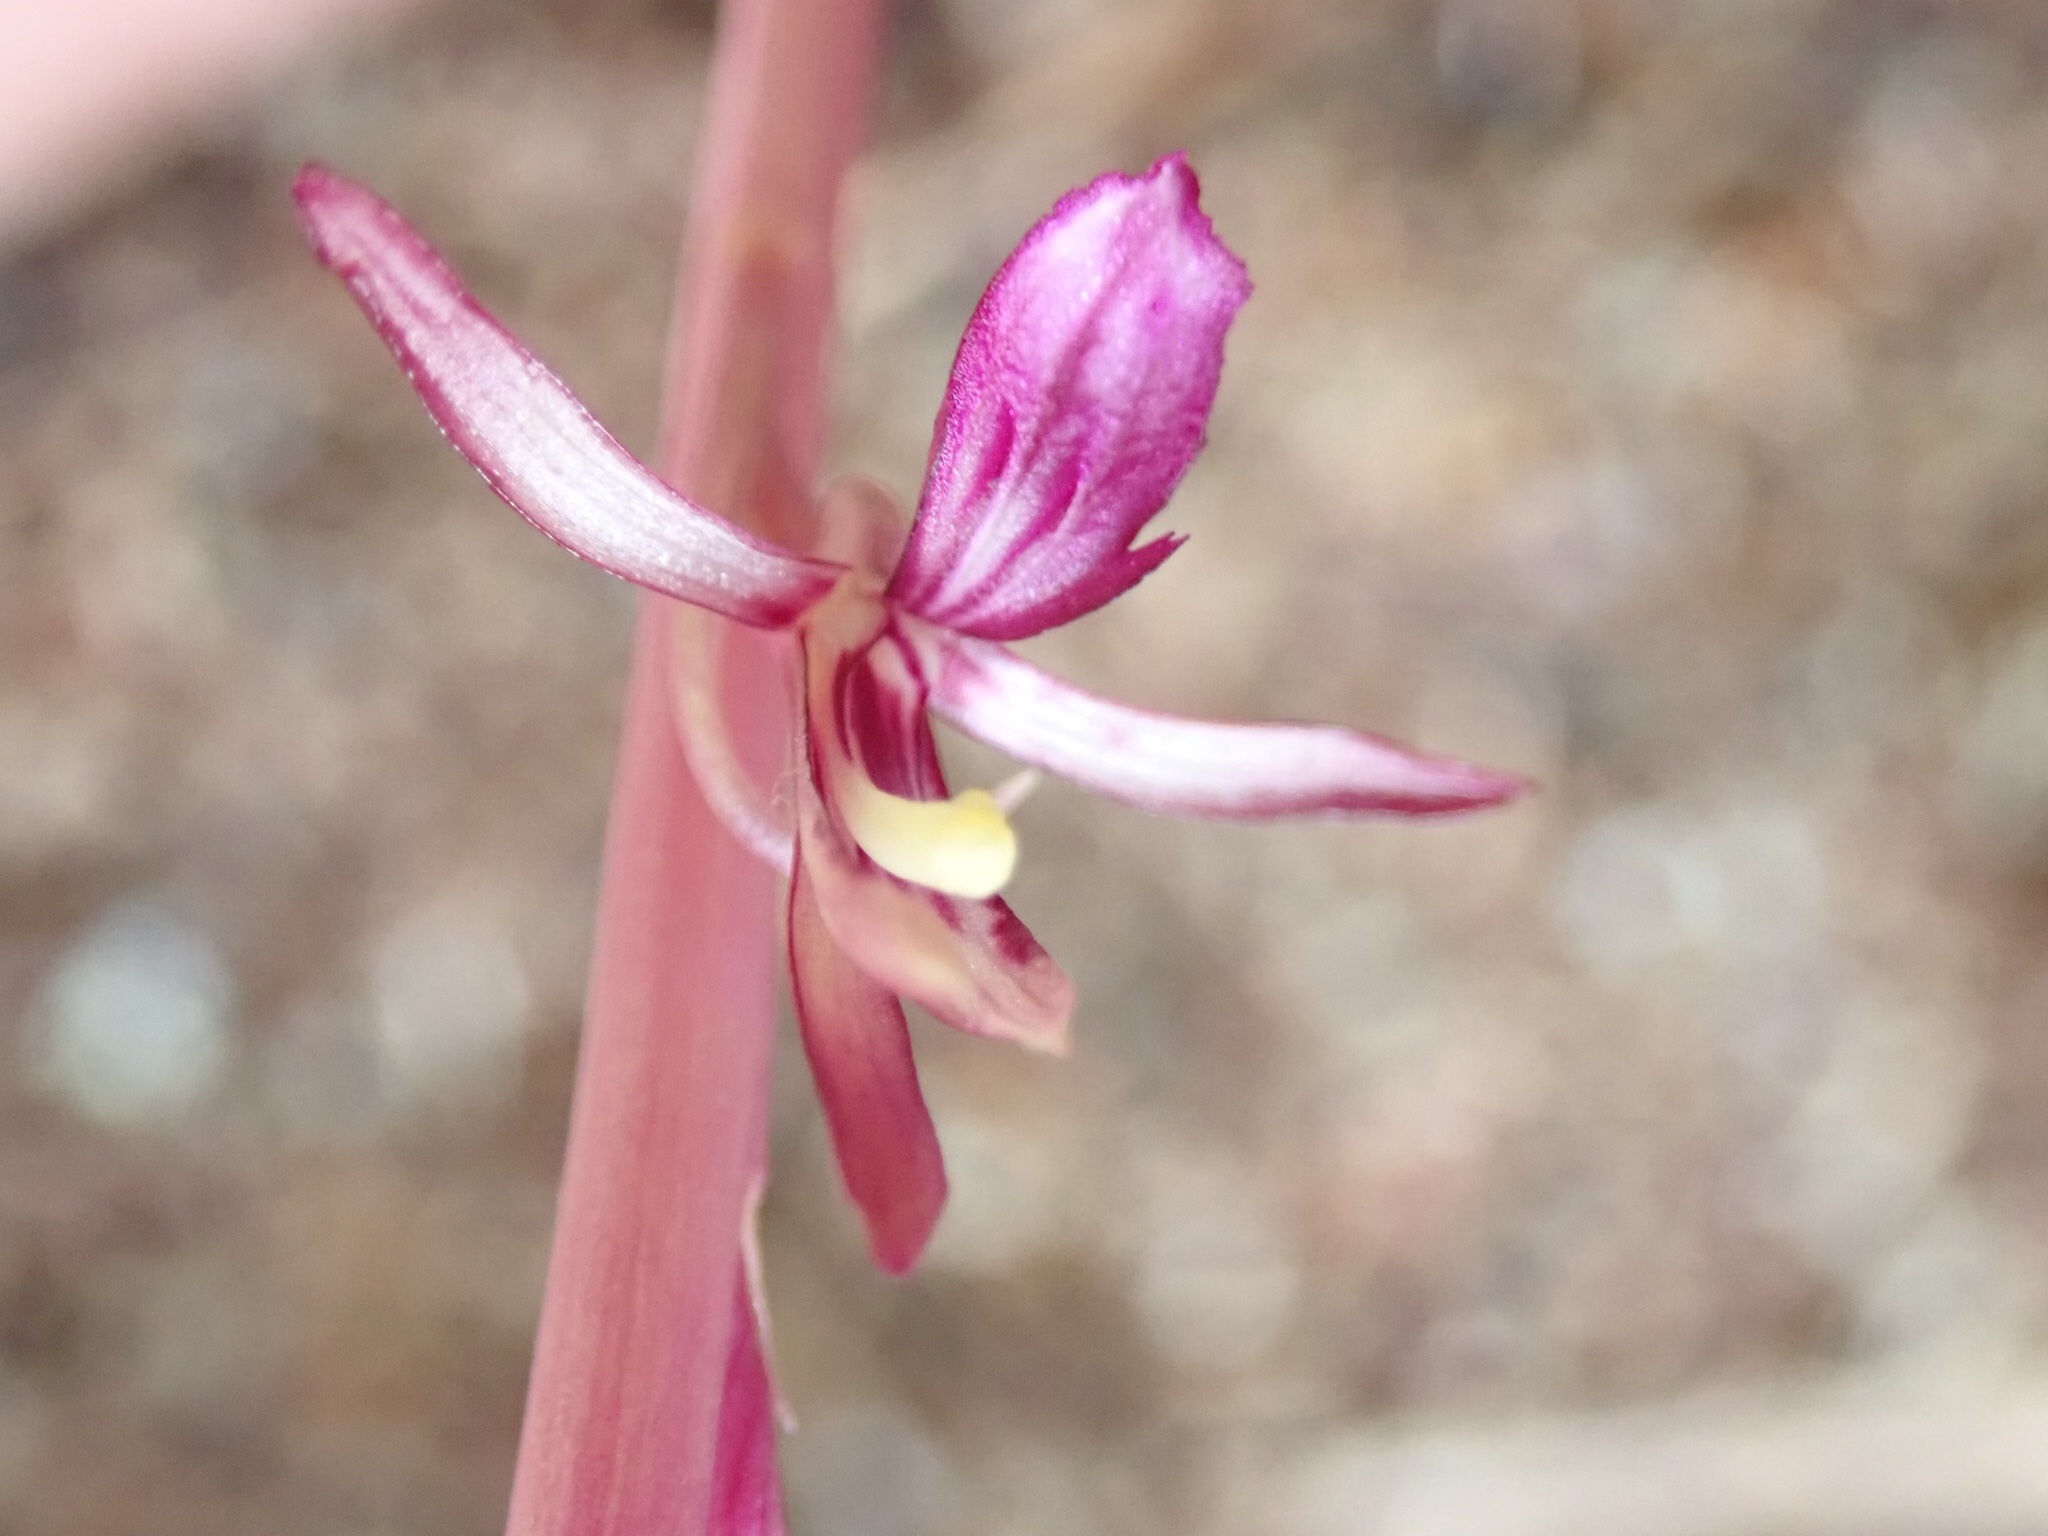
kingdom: Plantae
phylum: Tracheophyta
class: Liliopsida
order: Asparagales
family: Orchidaceae
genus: Corallorhiza
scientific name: Corallorhiza mertensiana
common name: Pacific coralroot
